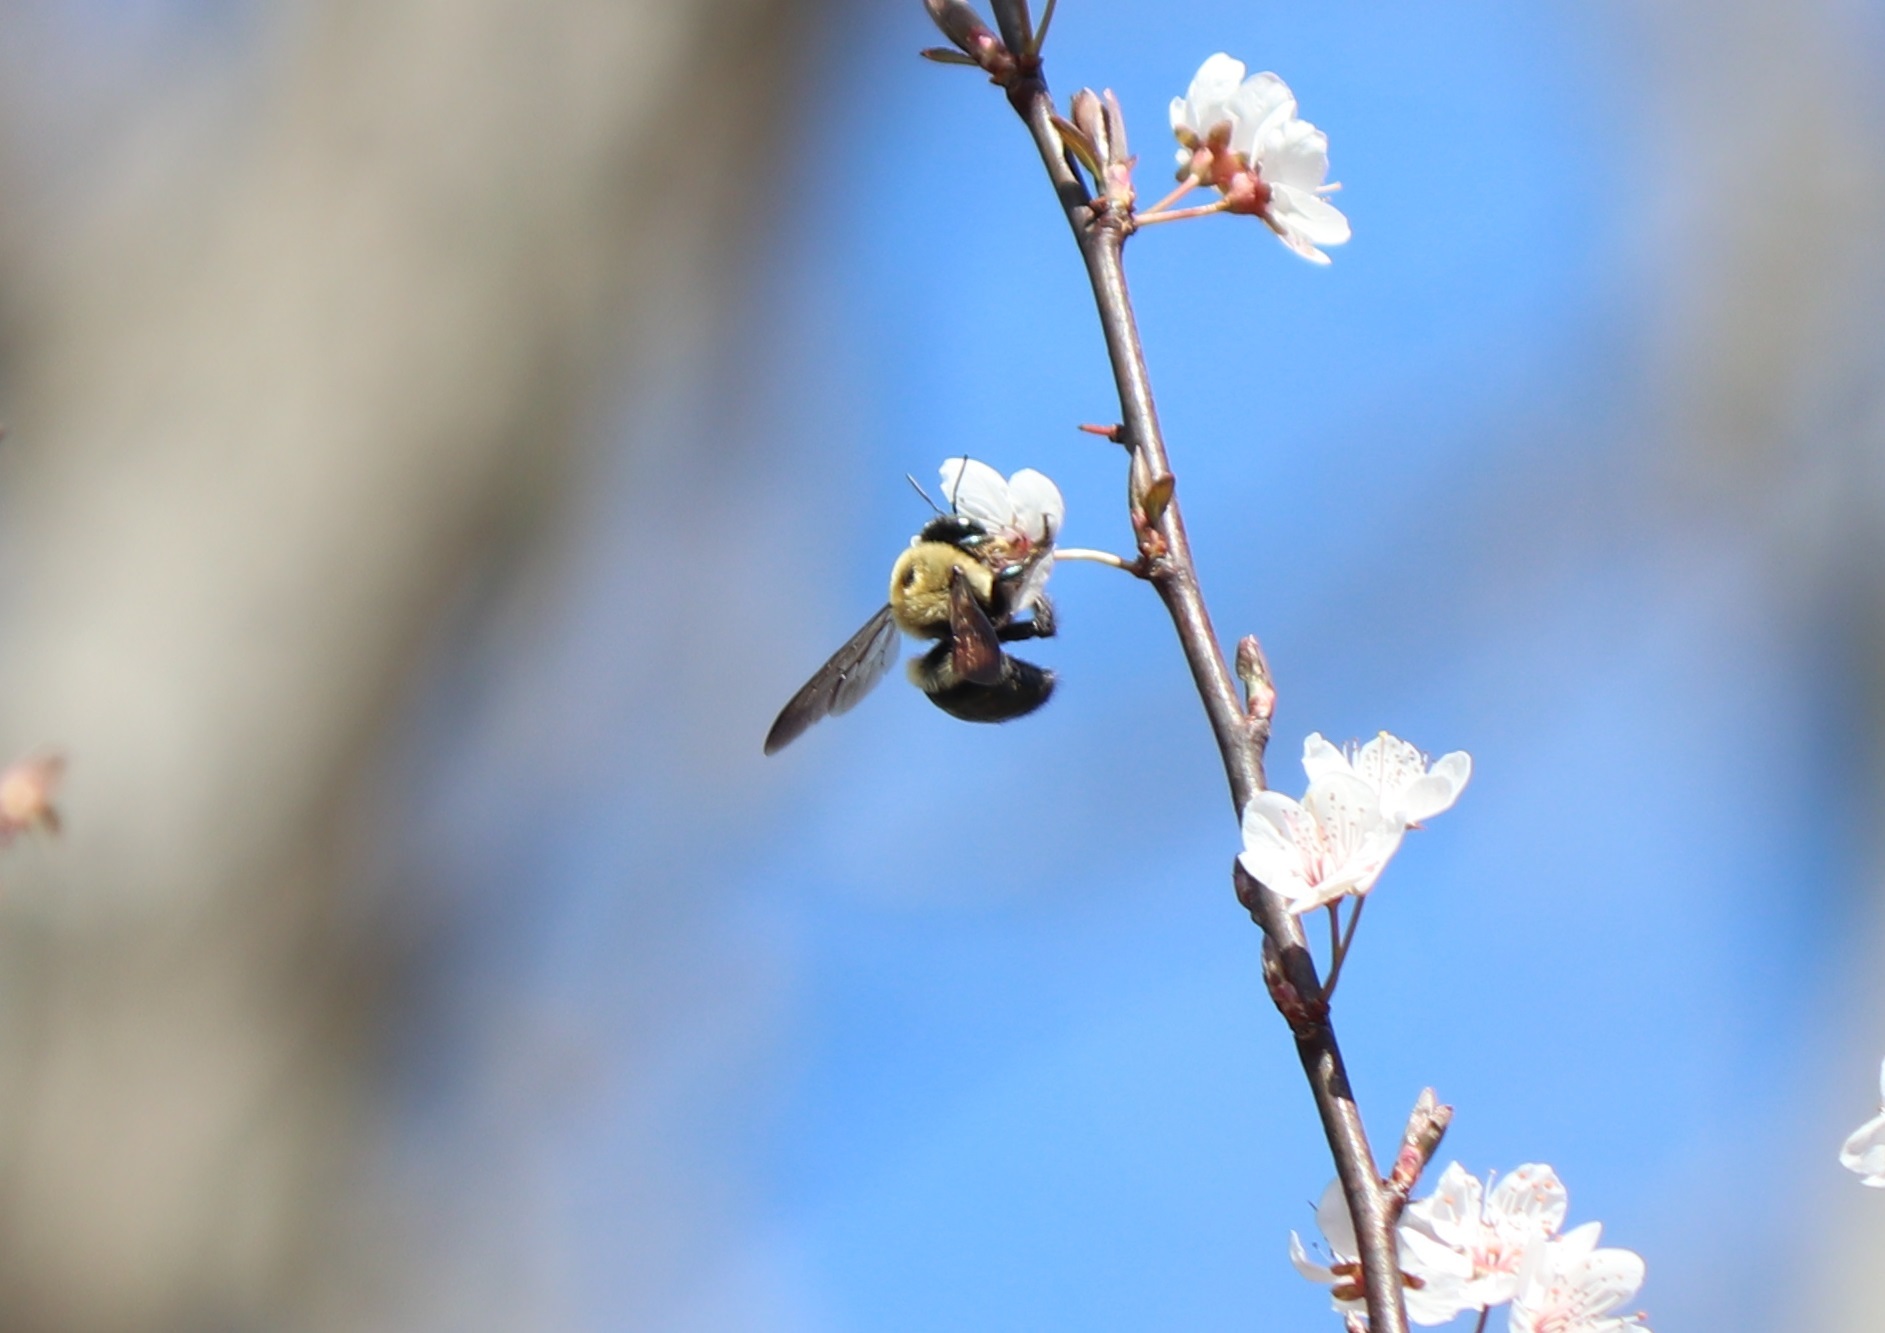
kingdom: Animalia
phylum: Arthropoda
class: Insecta
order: Hymenoptera
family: Apidae
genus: Xylocopa
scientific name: Xylocopa virginica
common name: Carpenter bee
